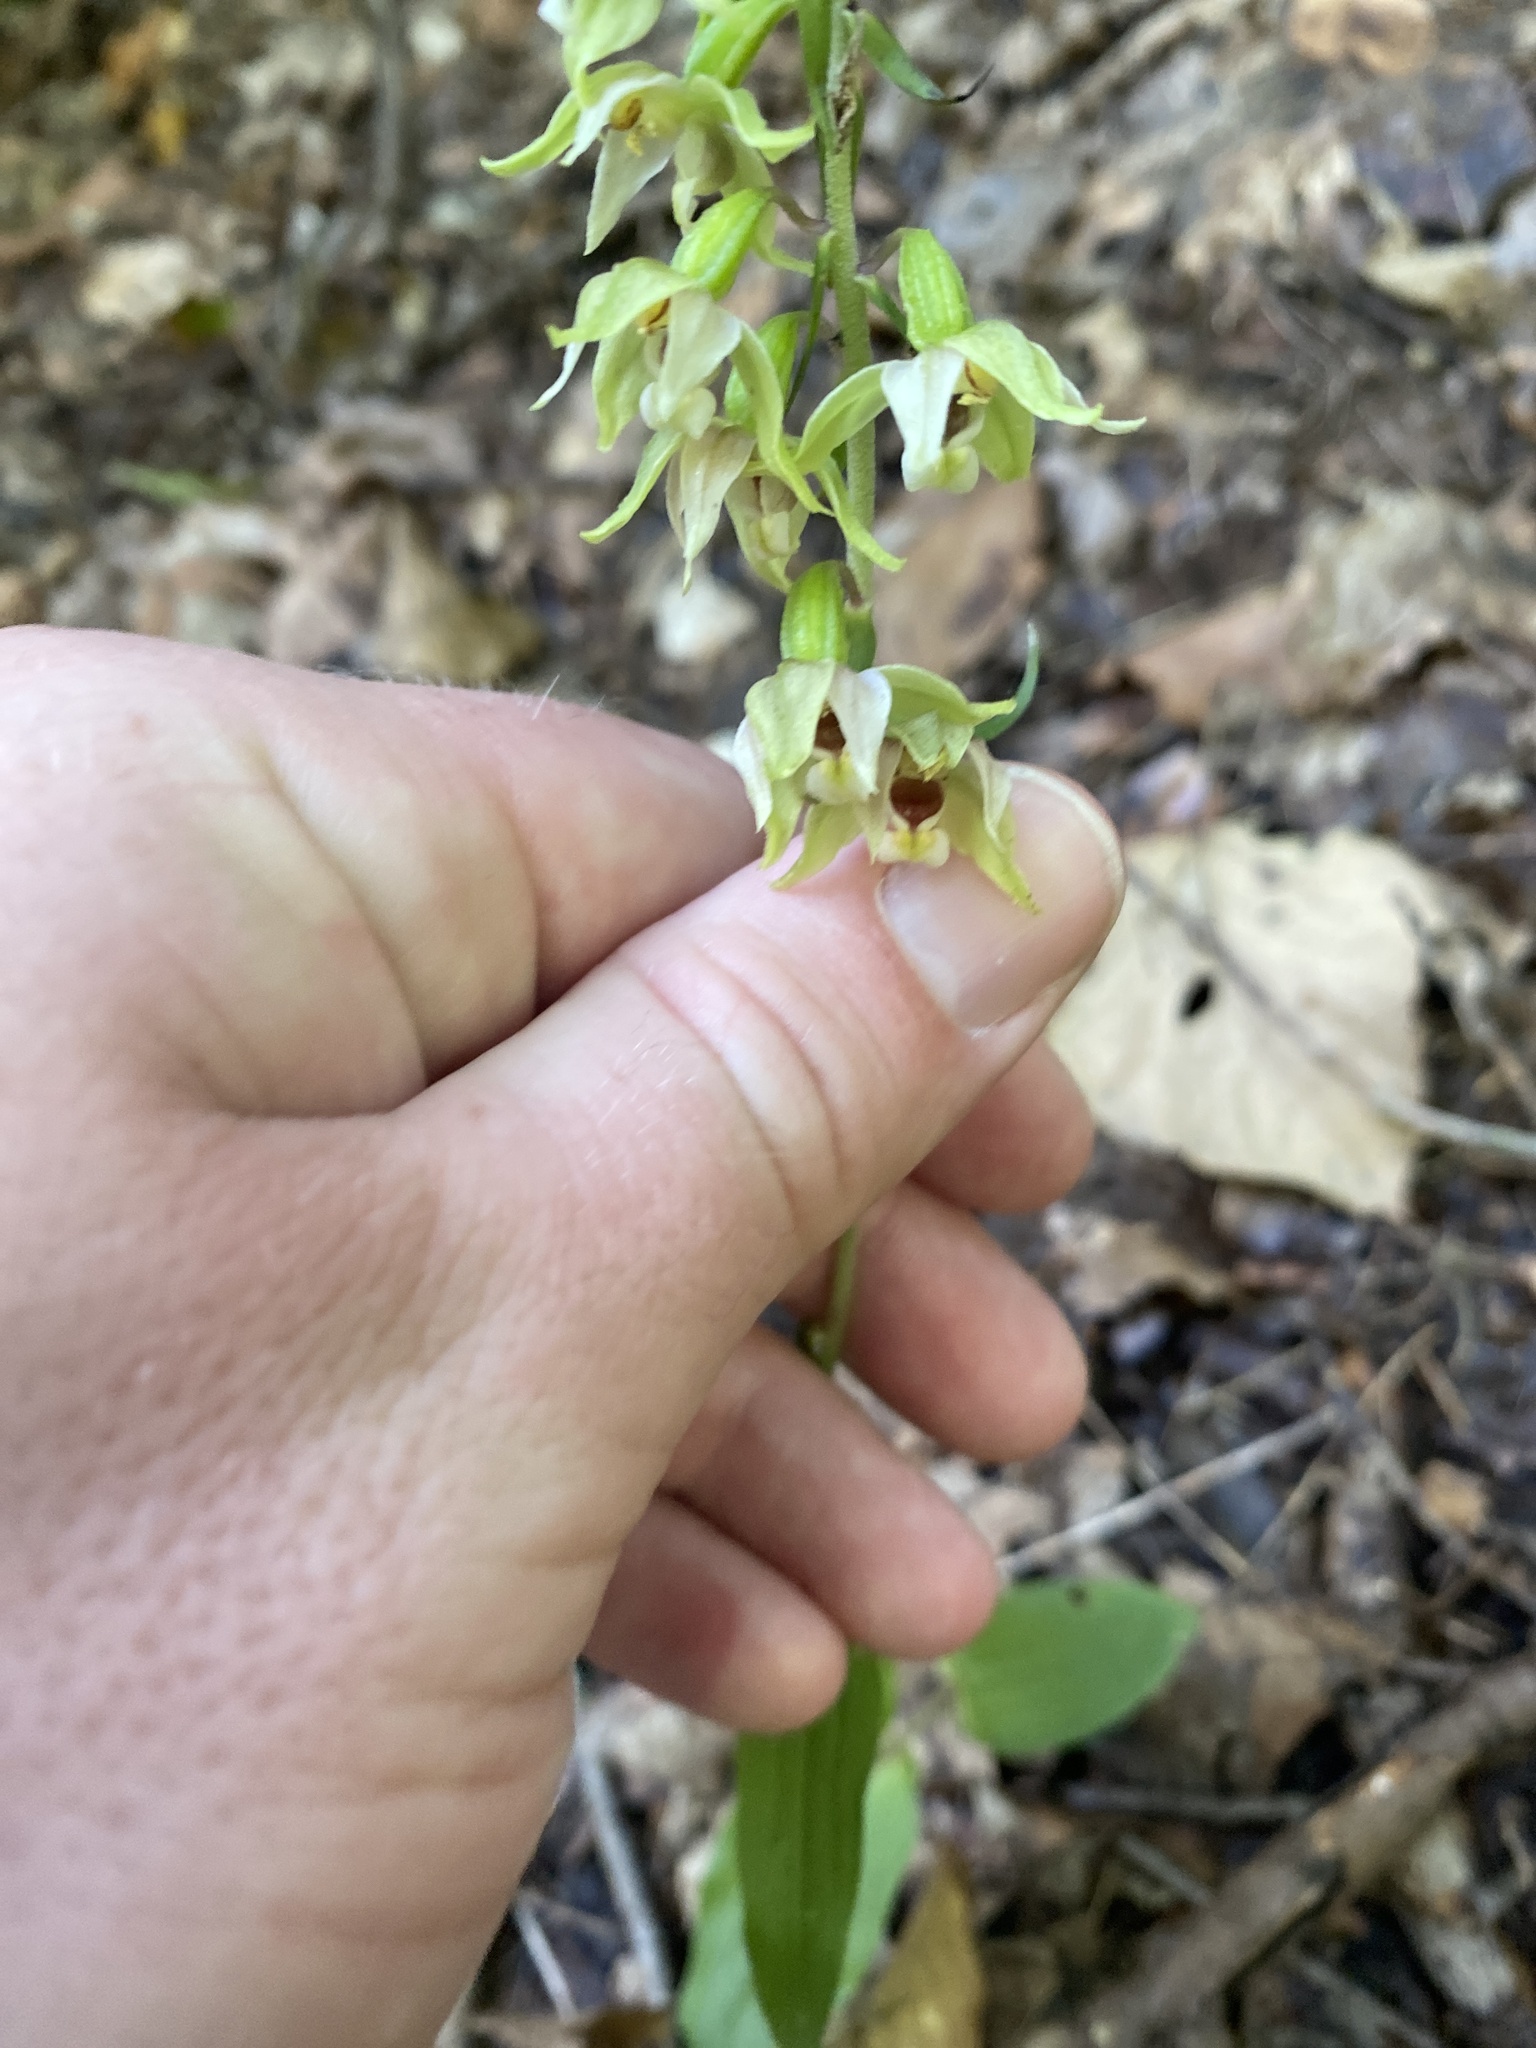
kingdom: Plantae
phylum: Tracheophyta
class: Liliopsida
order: Asparagales
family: Orchidaceae
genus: Epipactis
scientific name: Epipactis helleborine
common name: Broad-leaved helleborine
